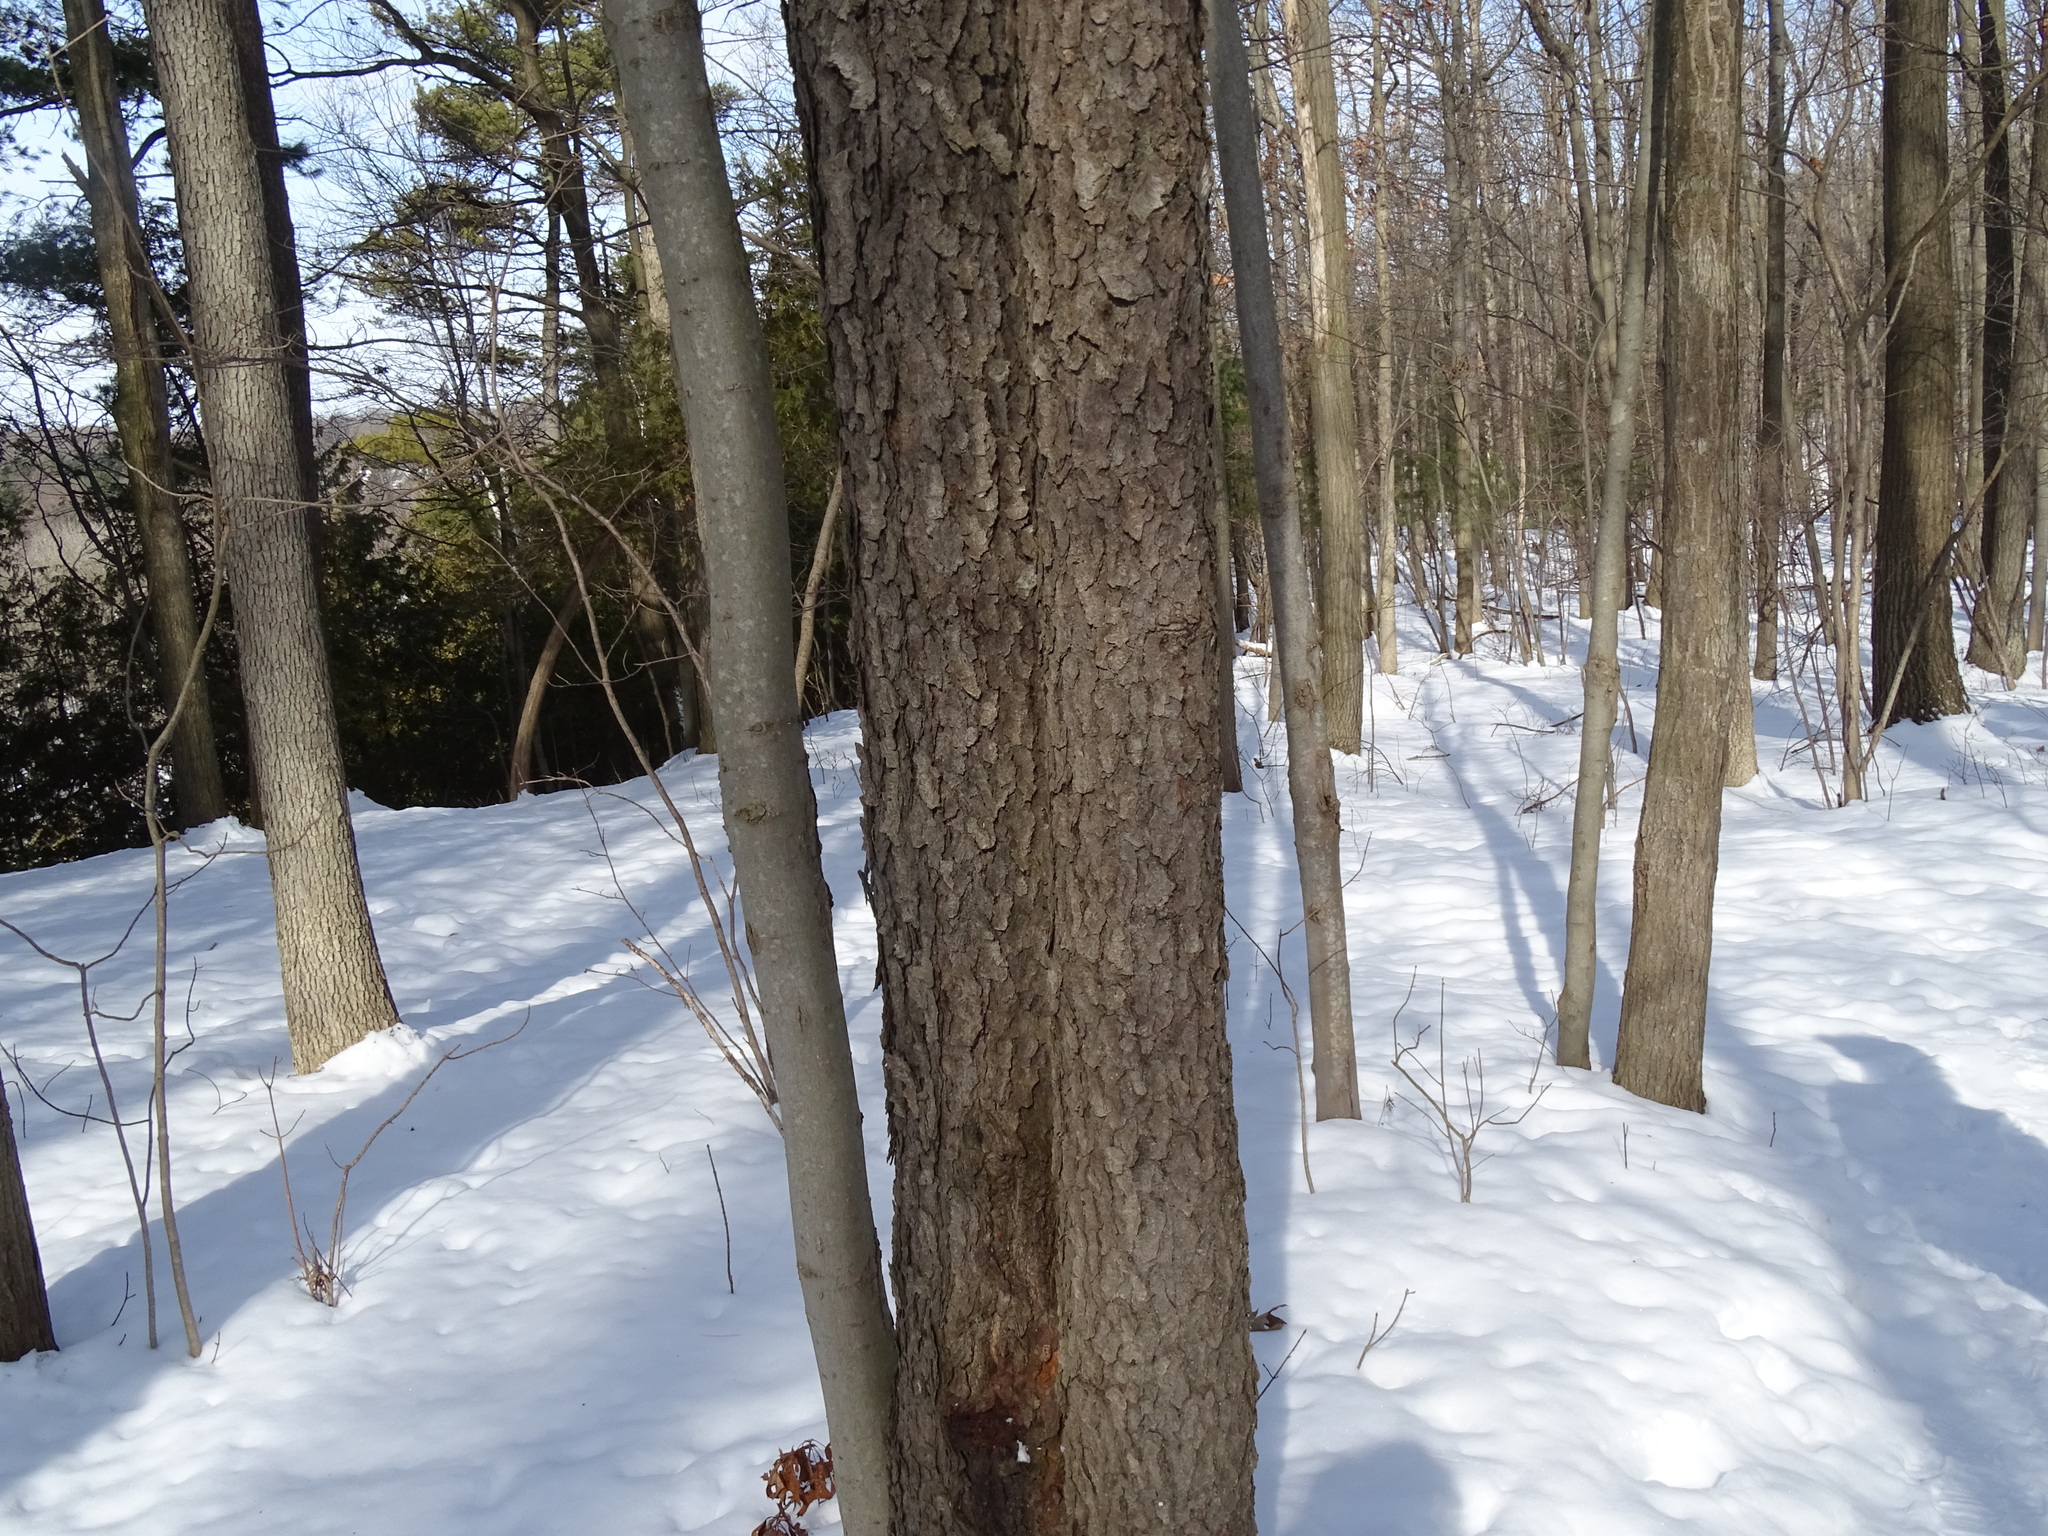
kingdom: Plantae
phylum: Tracheophyta
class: Magnoliopsida
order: Rosales
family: Rosaceae
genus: Prunus
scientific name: Prunus serotina
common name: Black cherry
